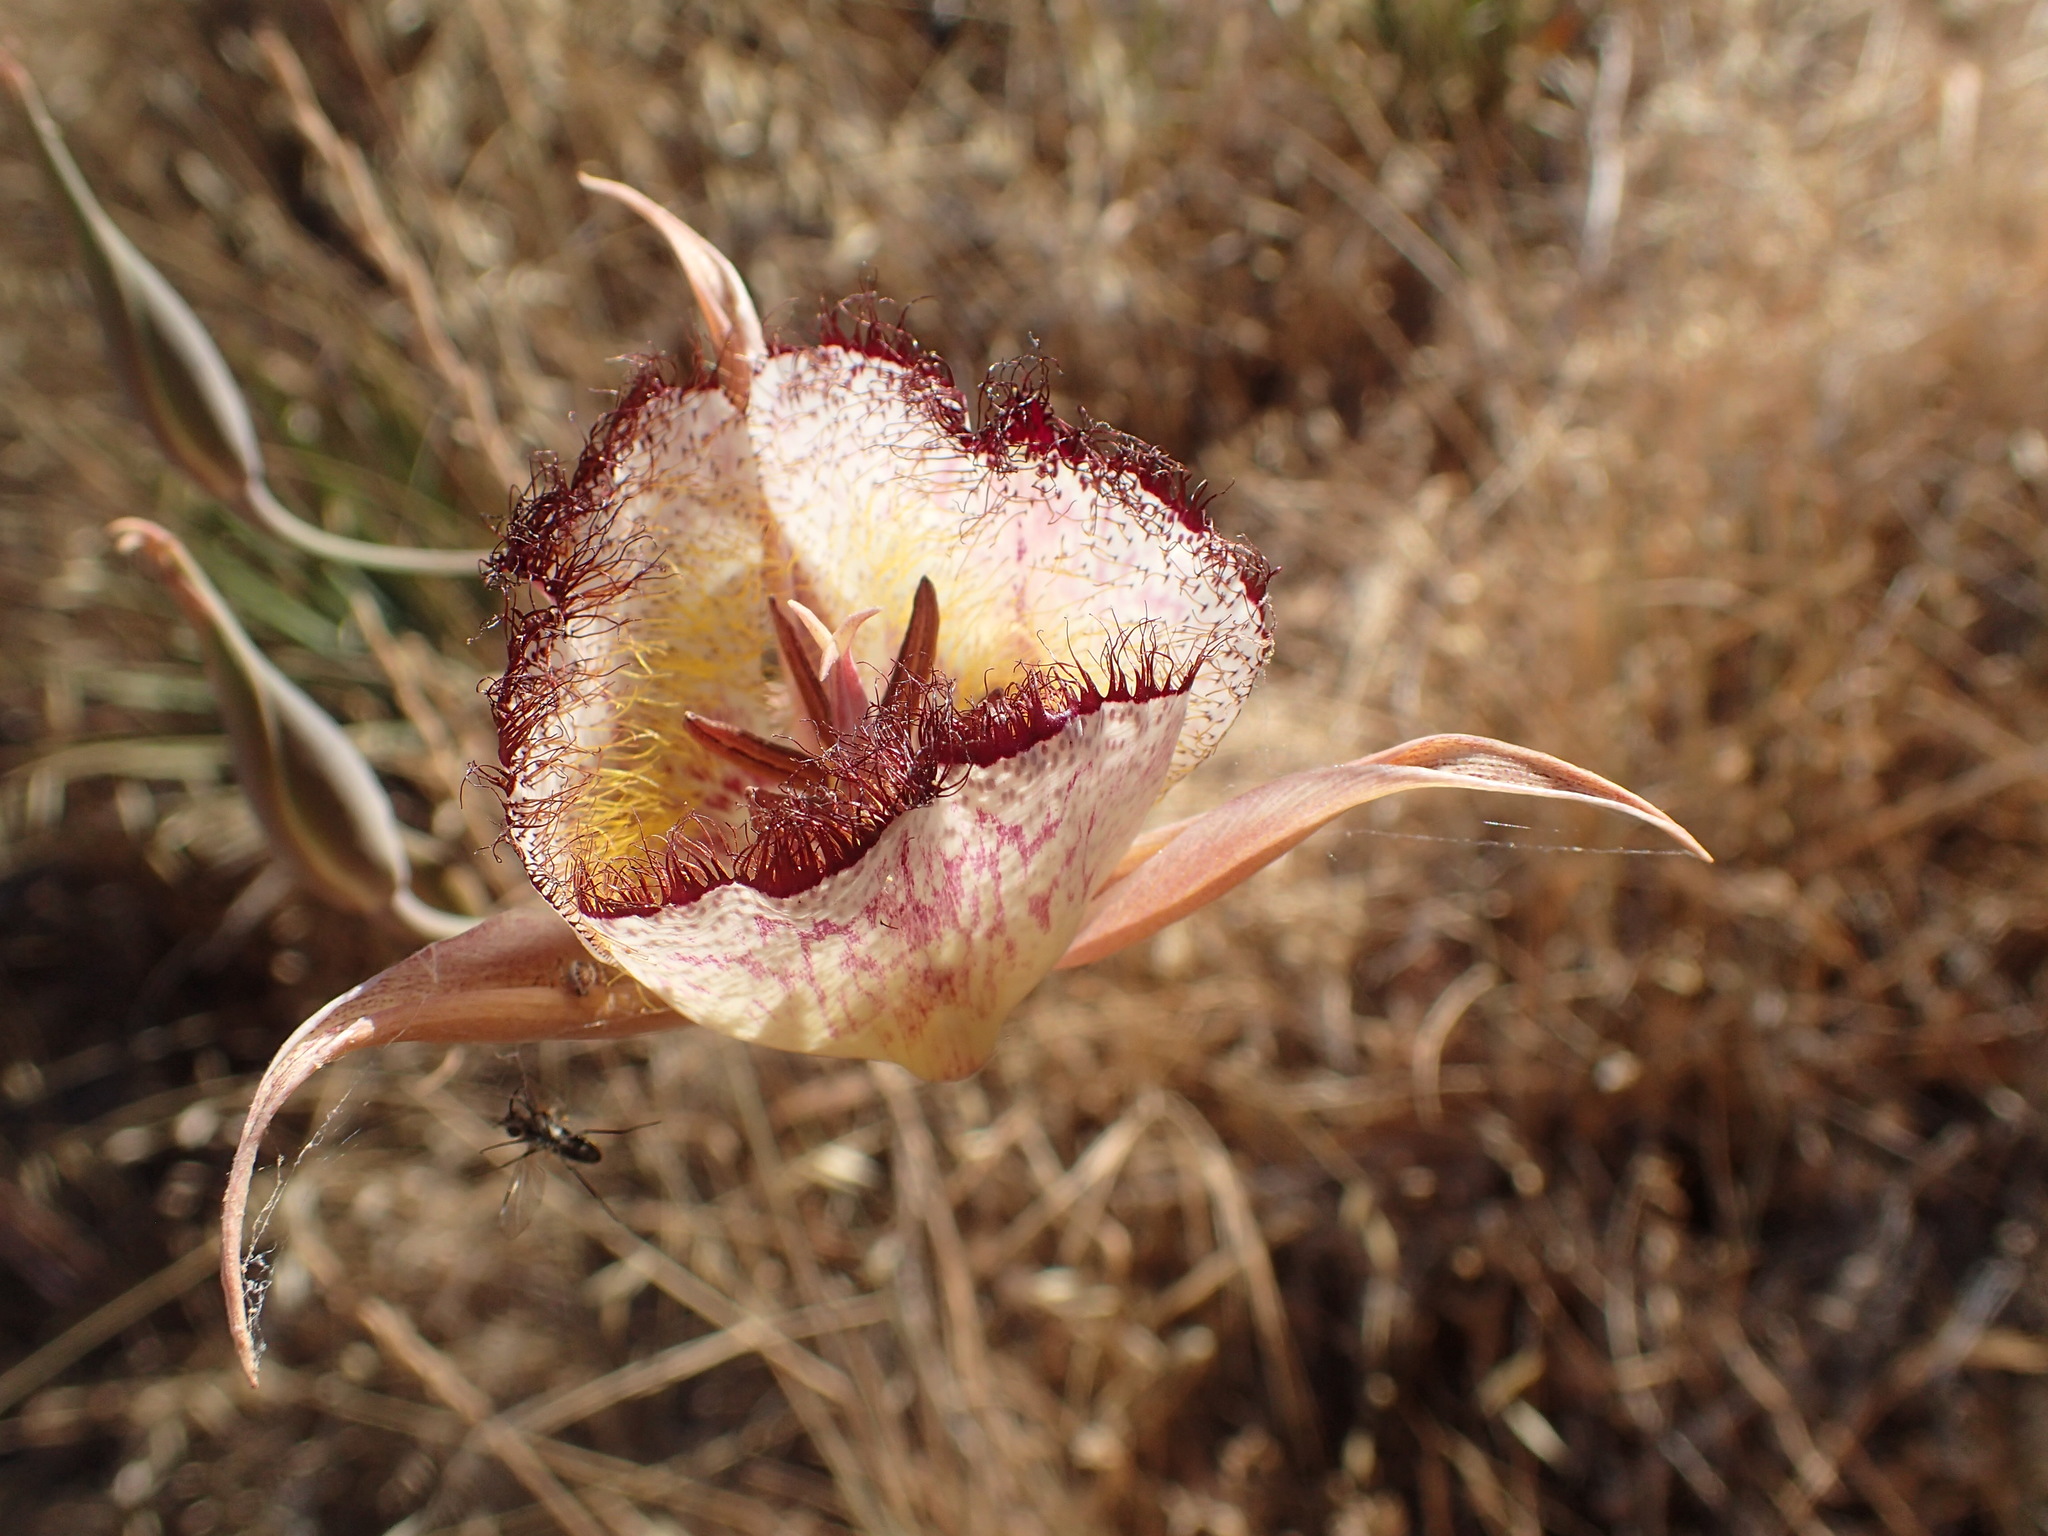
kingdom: Plantae
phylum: Tracheophyta
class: Liliopsida
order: Liliales
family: Liliaceae
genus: Calochortus
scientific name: Calochortus fimbriatus
